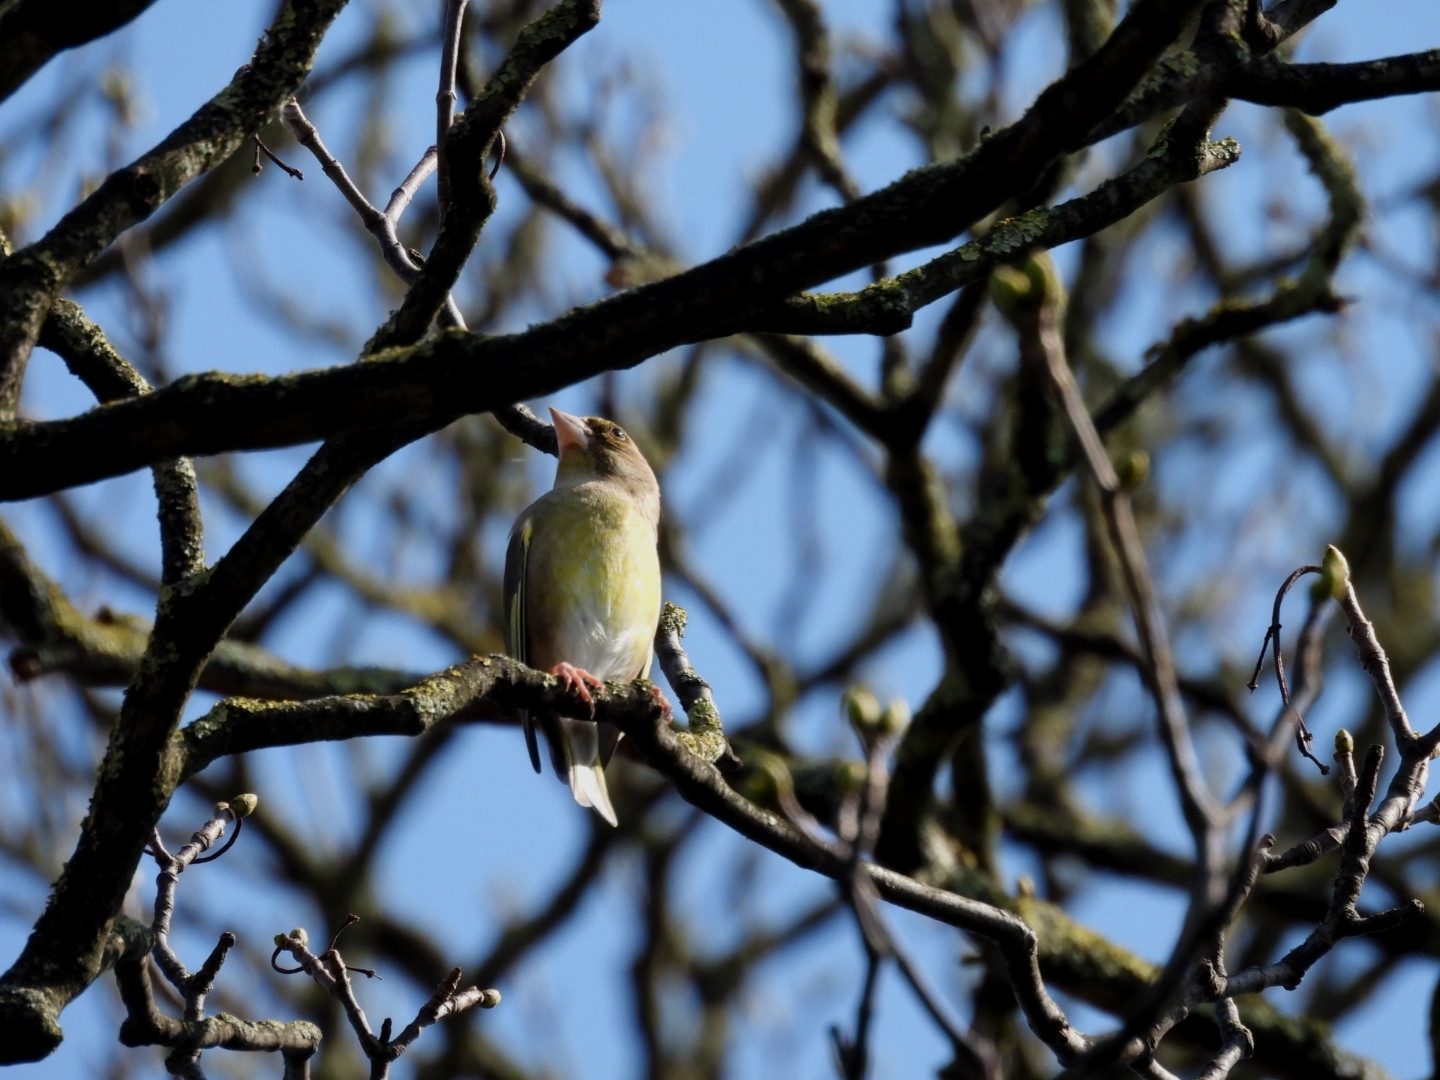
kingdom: Plantae
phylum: Tracheophyta
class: Liliopsida
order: Poales
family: Poaceae
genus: Chloris
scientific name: Chloris chloris
